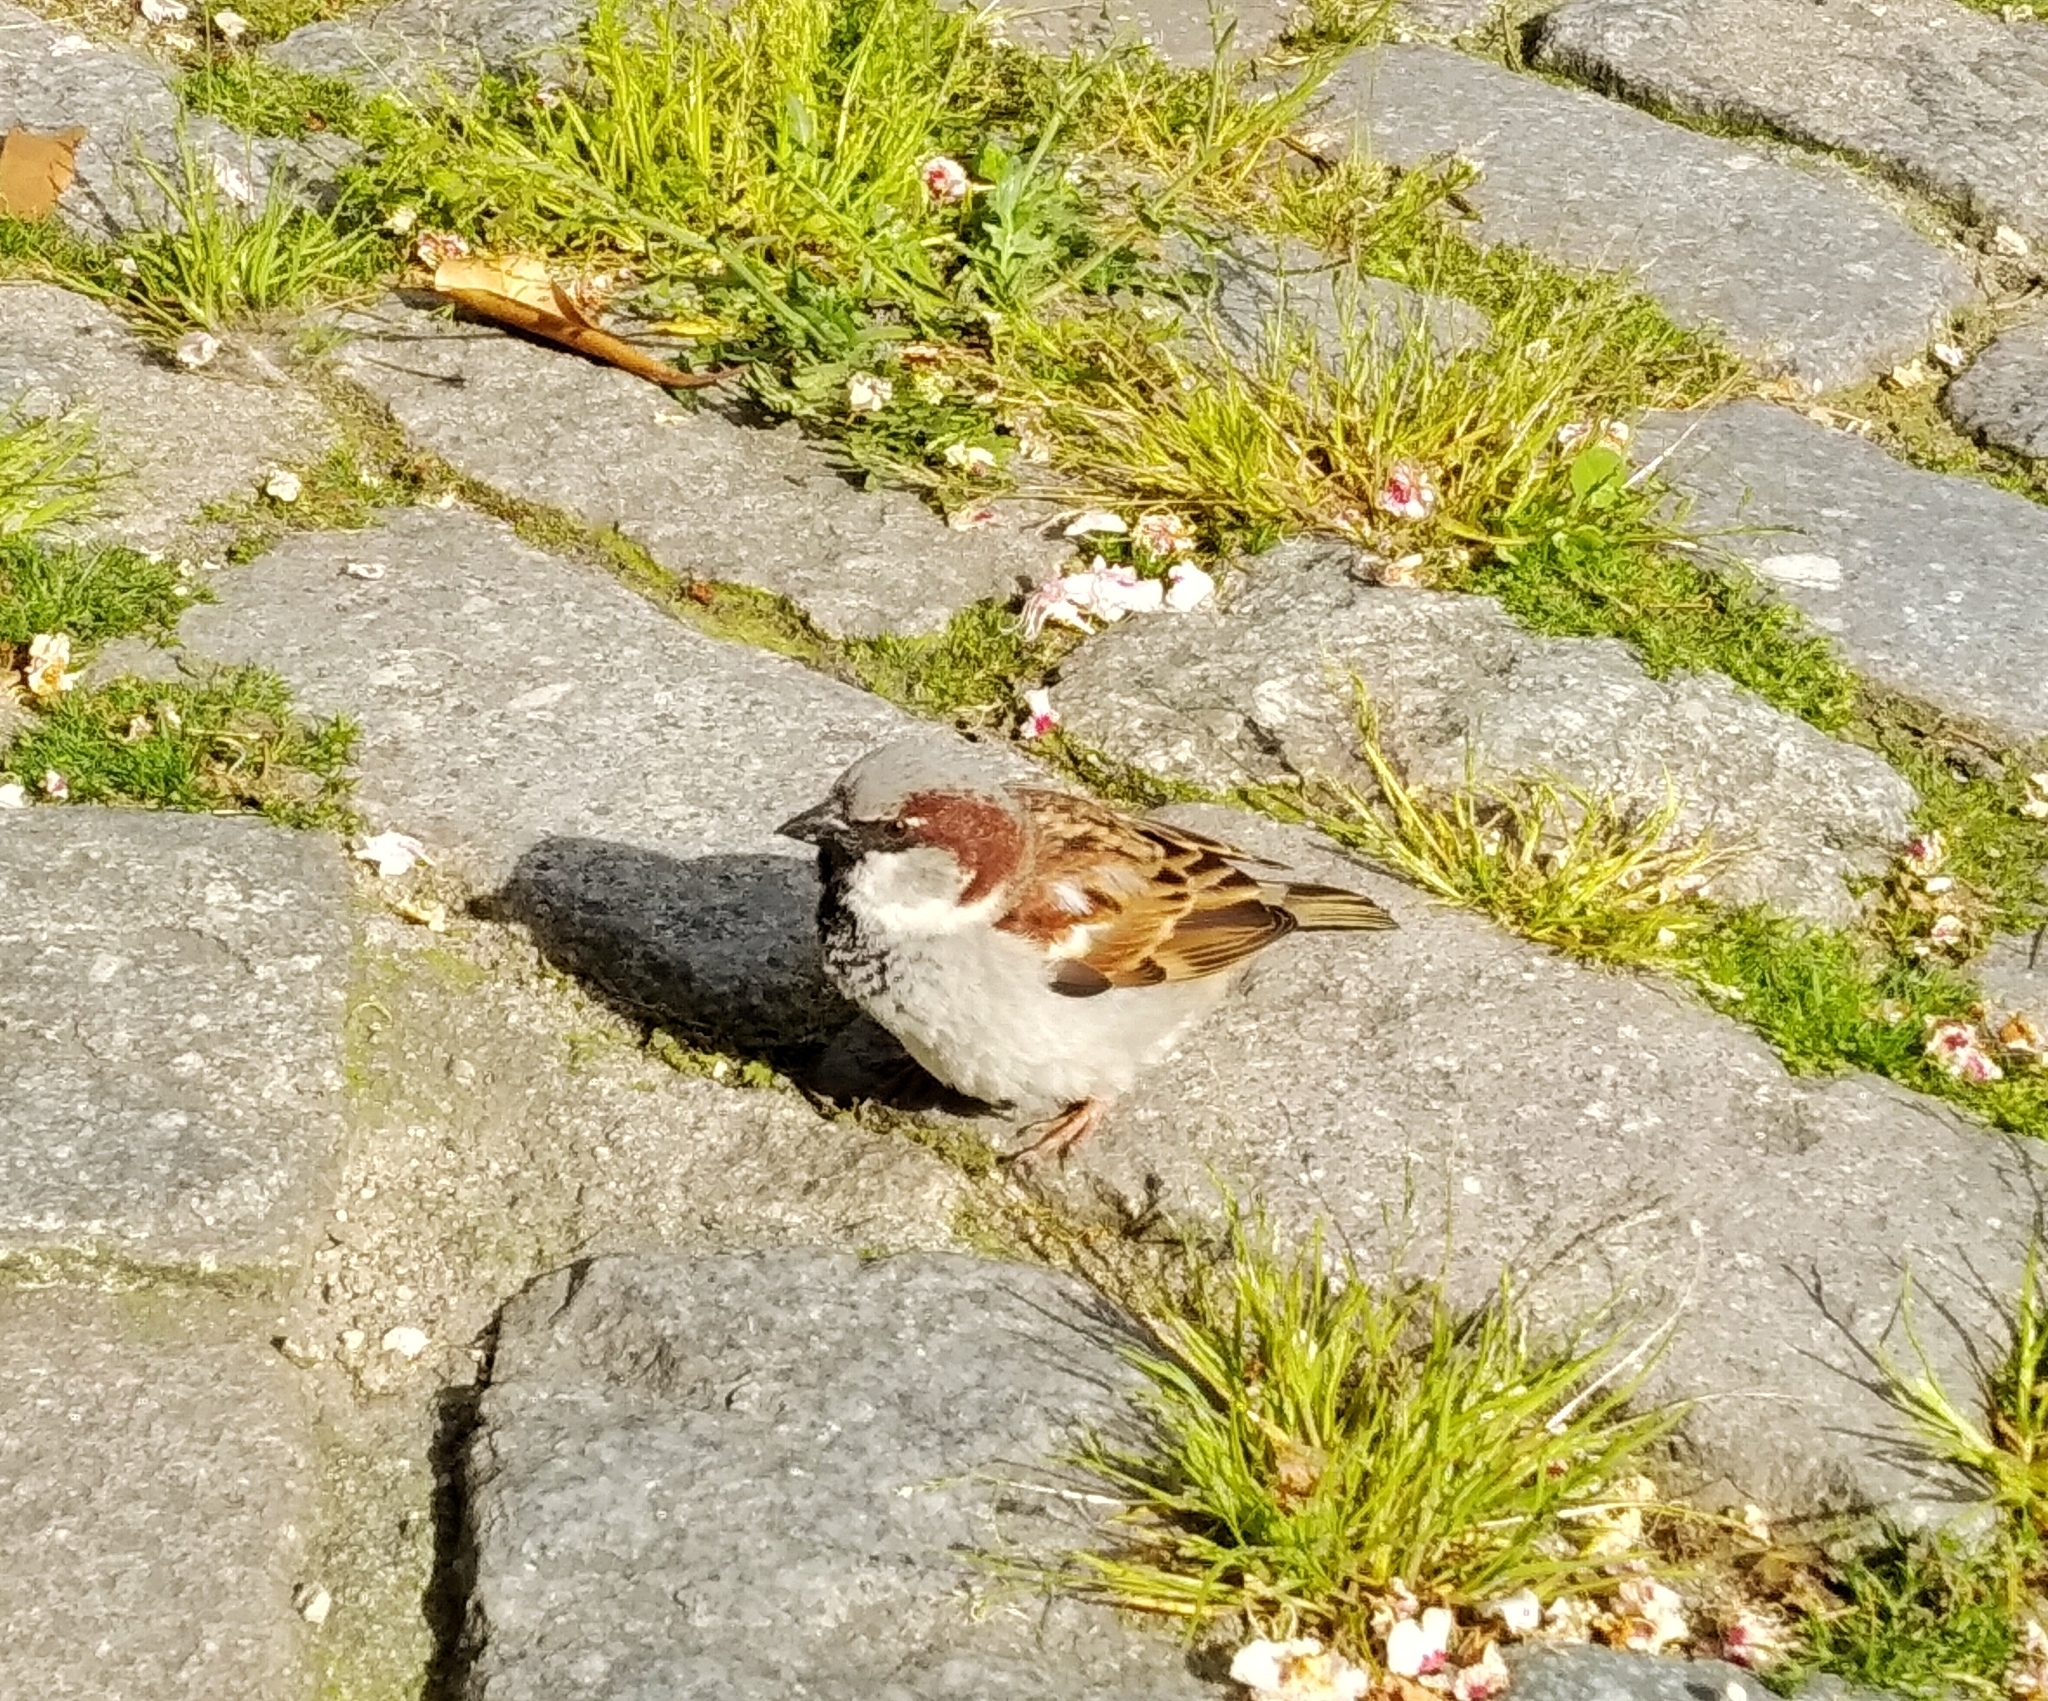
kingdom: Animalia
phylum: Chordata
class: Aves
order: Passeriformes
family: Passeridae
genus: Passer
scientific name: Passer domesticus
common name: House sparrow
